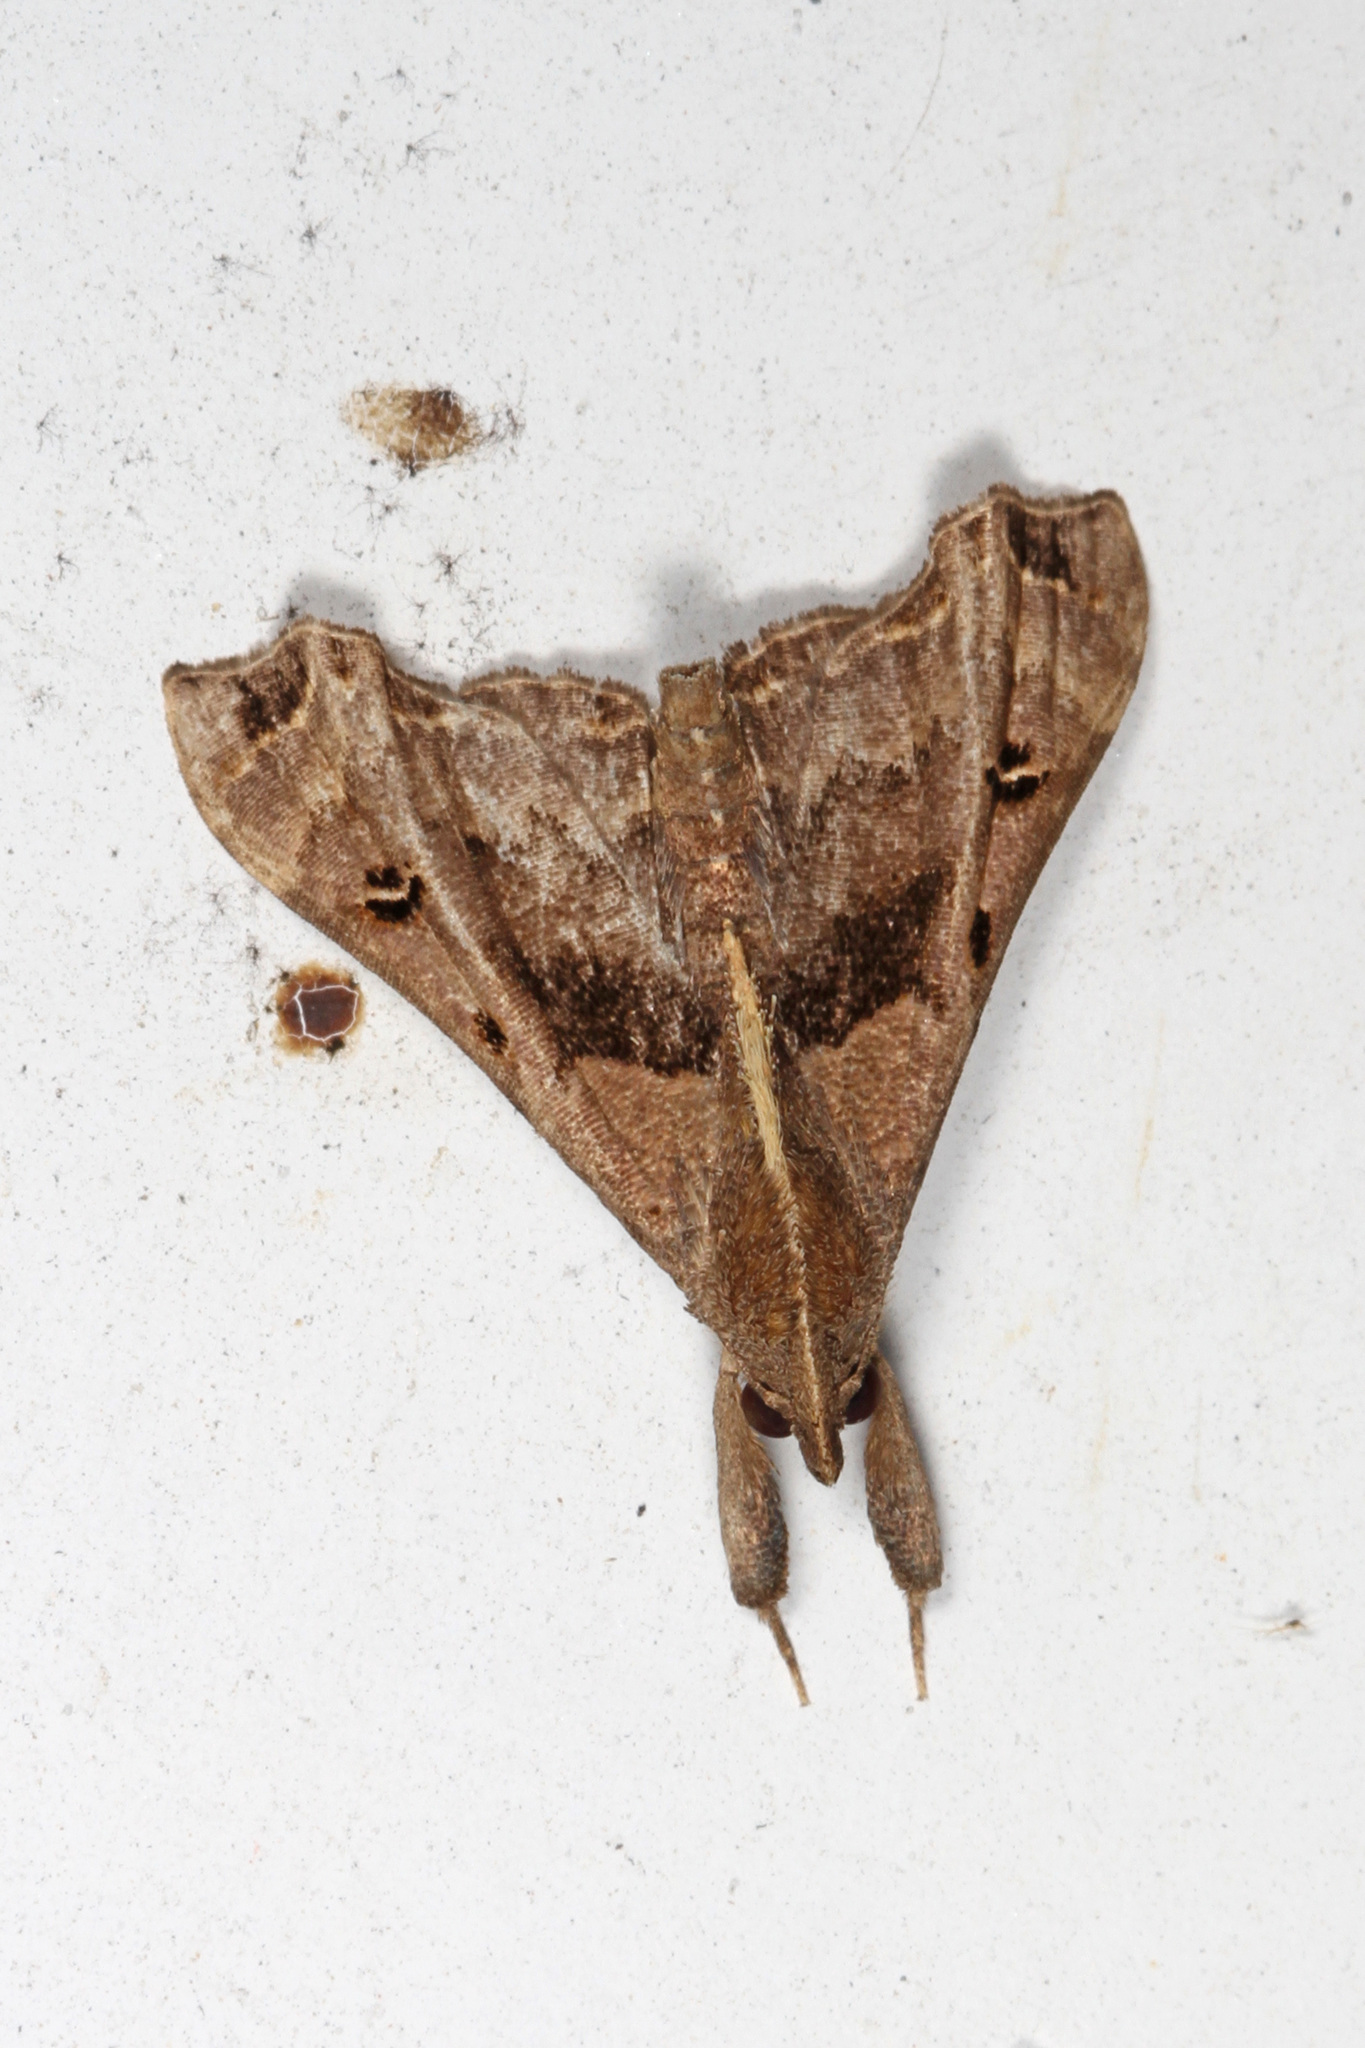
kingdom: Animalia
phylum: Arthropoda
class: Insecta
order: Lepidoptera
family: Erebidae
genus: Palthis
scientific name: Palthis asopialis
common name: Faint-spotted palthis moth
